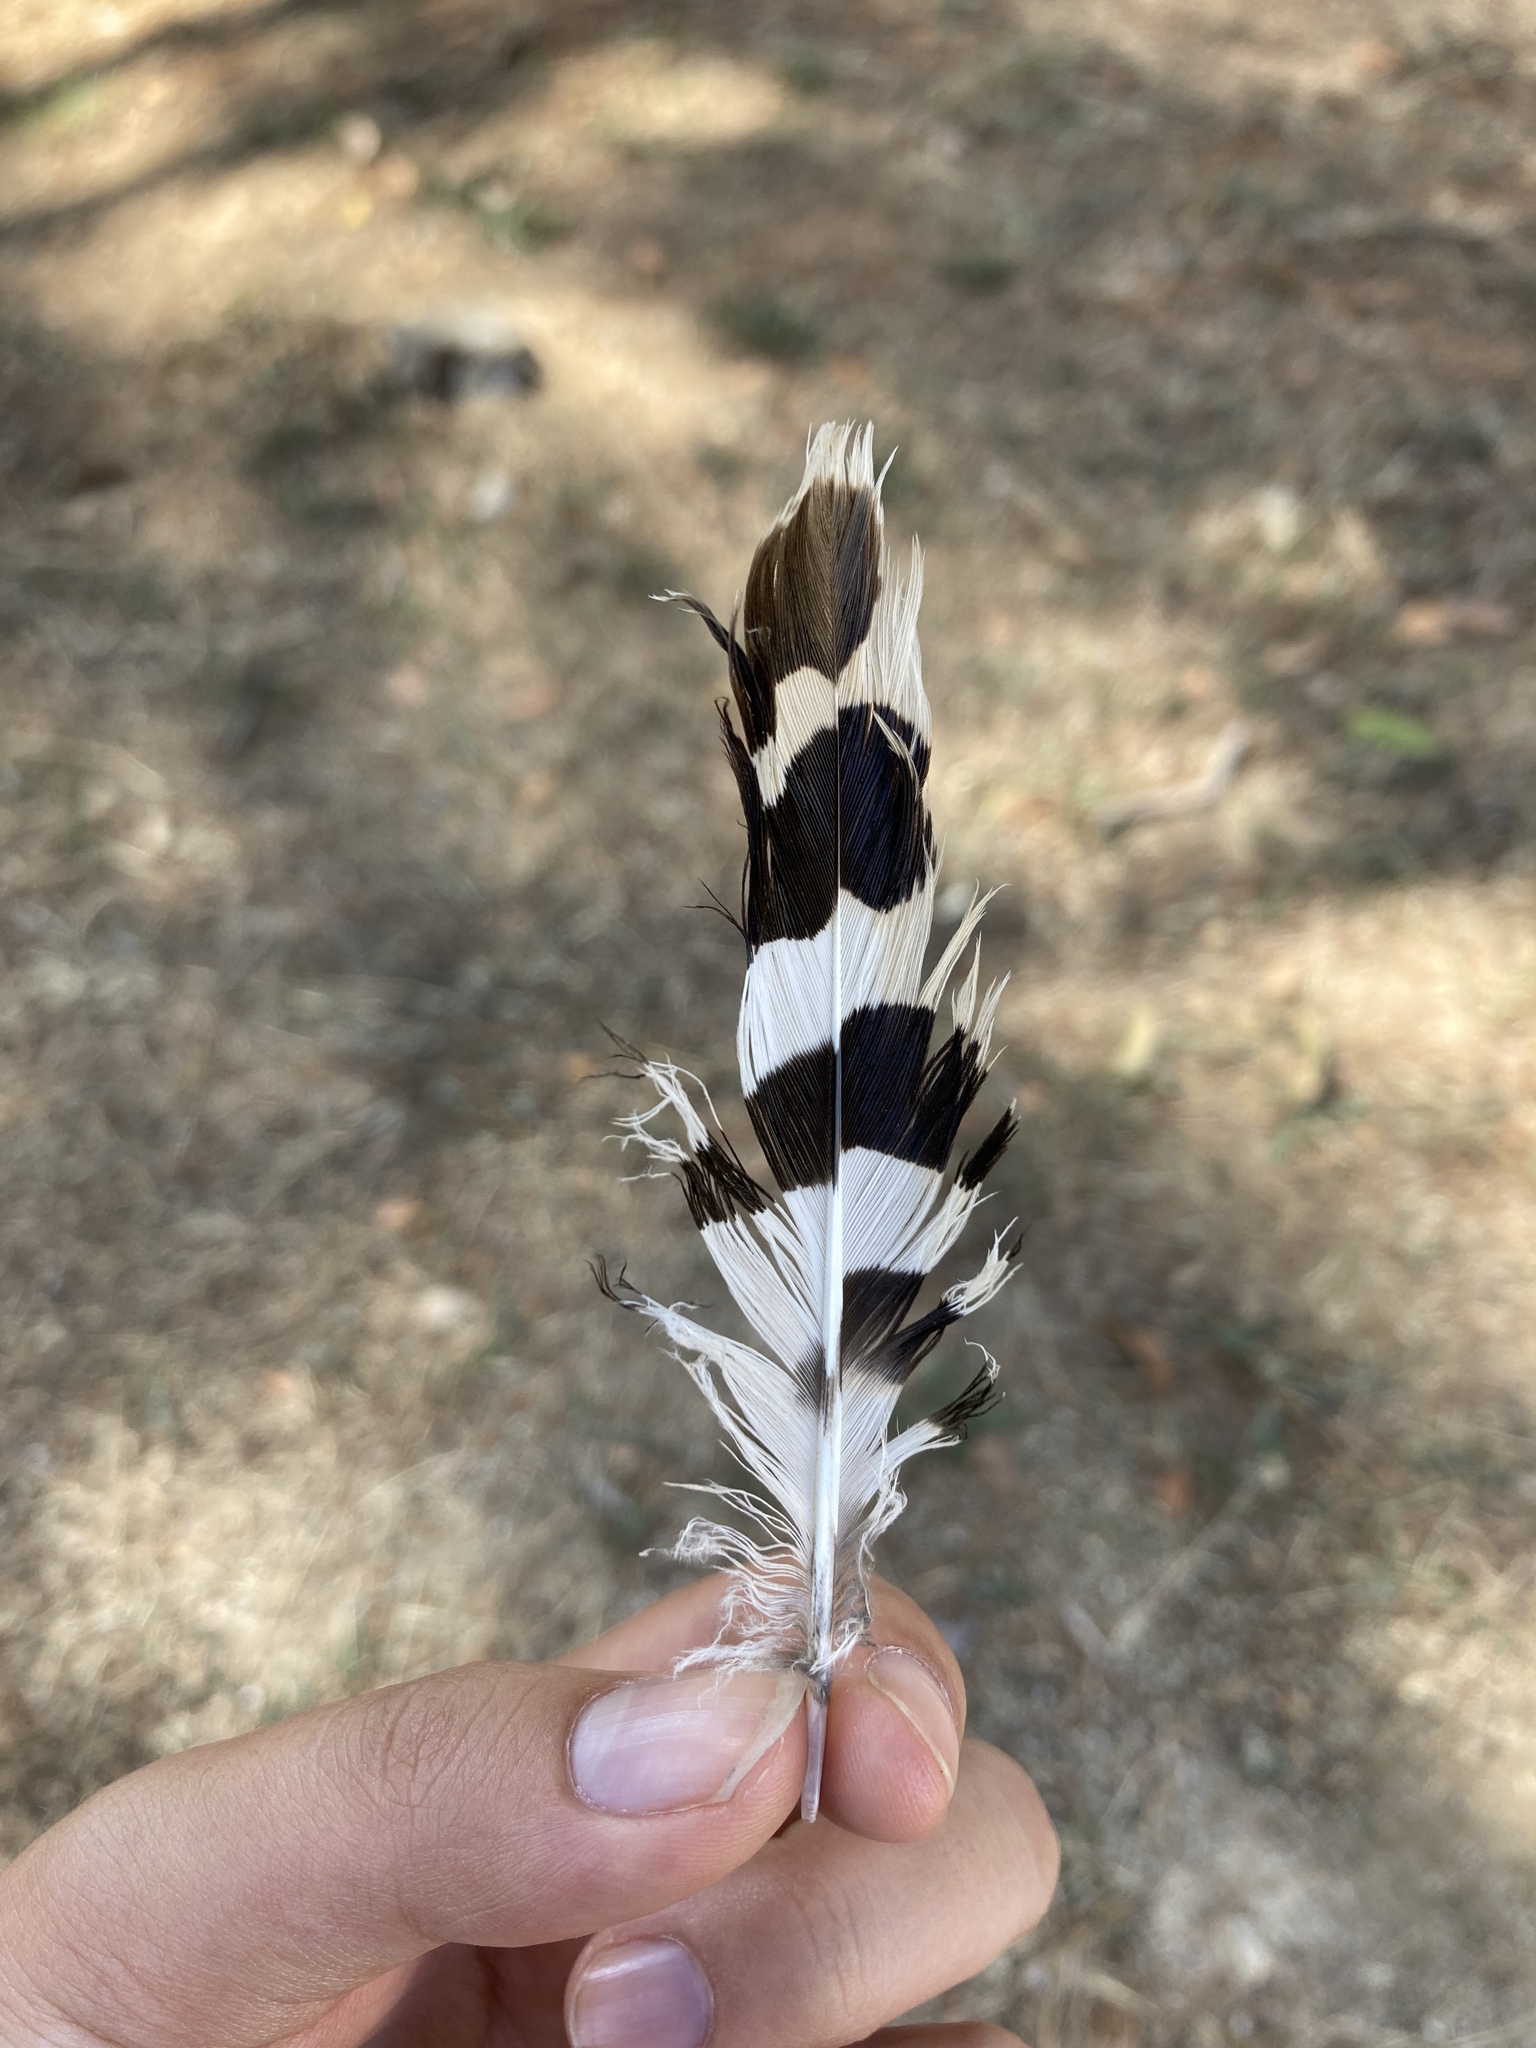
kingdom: Animalia
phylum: Chordata
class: Aves
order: Bucerotiformes
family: Upupidae
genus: Upupa
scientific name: Upupa epops
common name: Eurasian hoopoe
